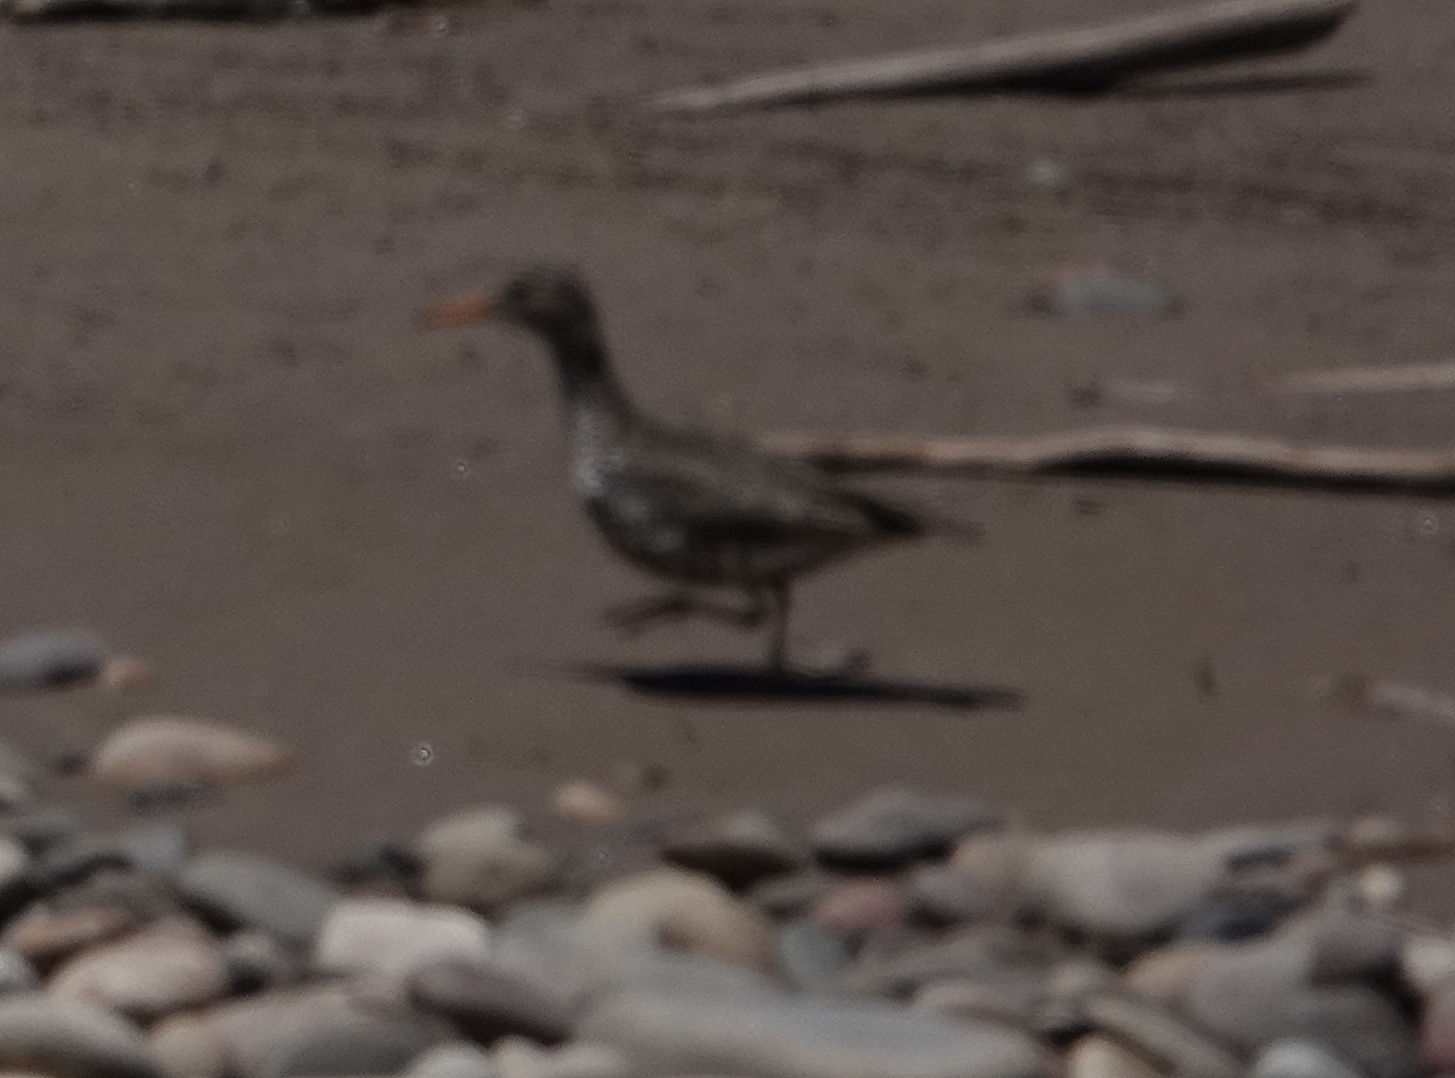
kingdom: Animalia
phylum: Chordata
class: Aves
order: Charadriiformes
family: Scolopacidae
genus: Actitis
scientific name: Actitis macularius
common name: Spotted sandpiper
